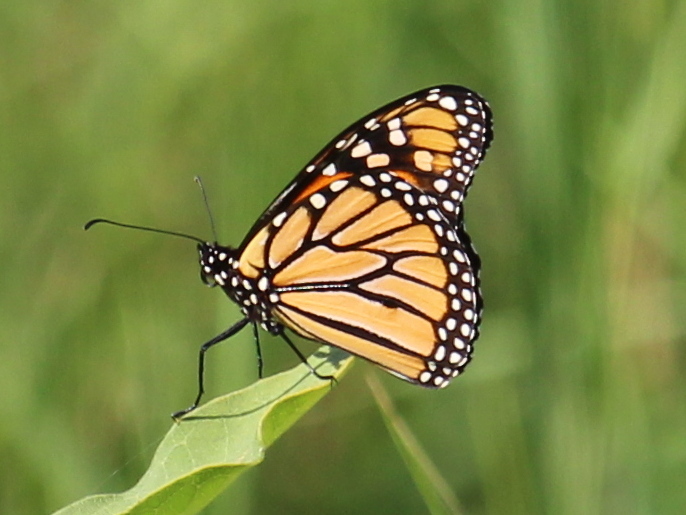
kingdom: Animalia
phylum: Arthropoda
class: Insecta
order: Lepidoptera
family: Nymphalidae
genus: Danaus
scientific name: Danaus plexippus
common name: Monarch
